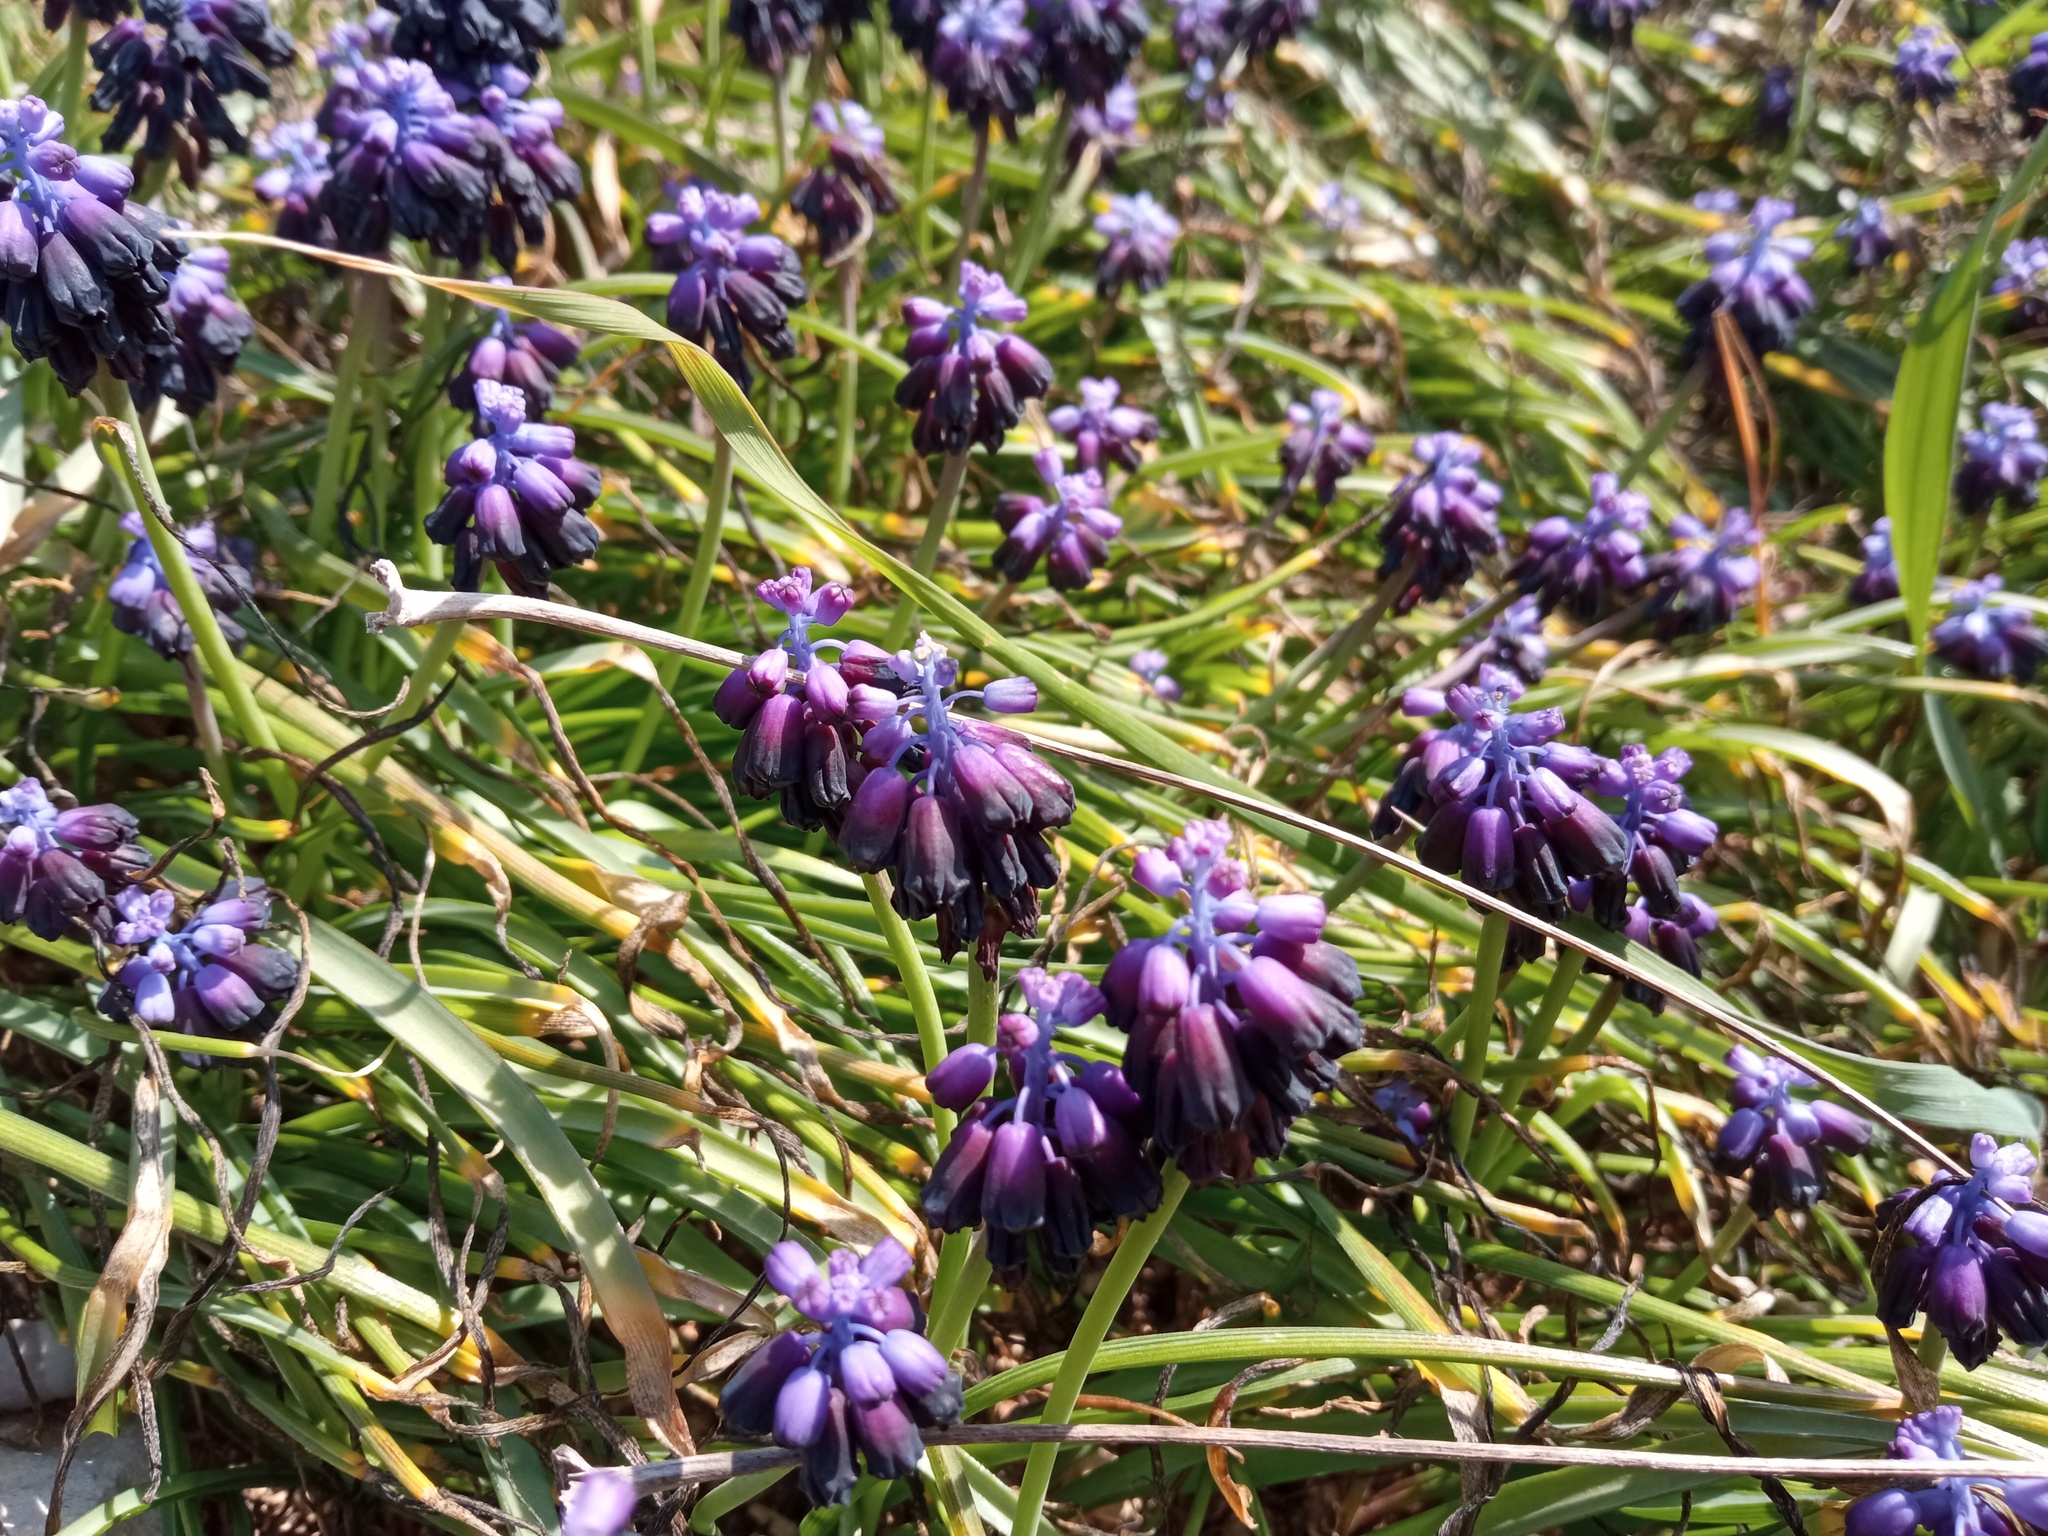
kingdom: Plantae
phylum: Tracheophyta
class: Liliopsida
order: Asparagales
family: Asparagaceae
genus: Muscari
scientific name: Muscari commutatum
